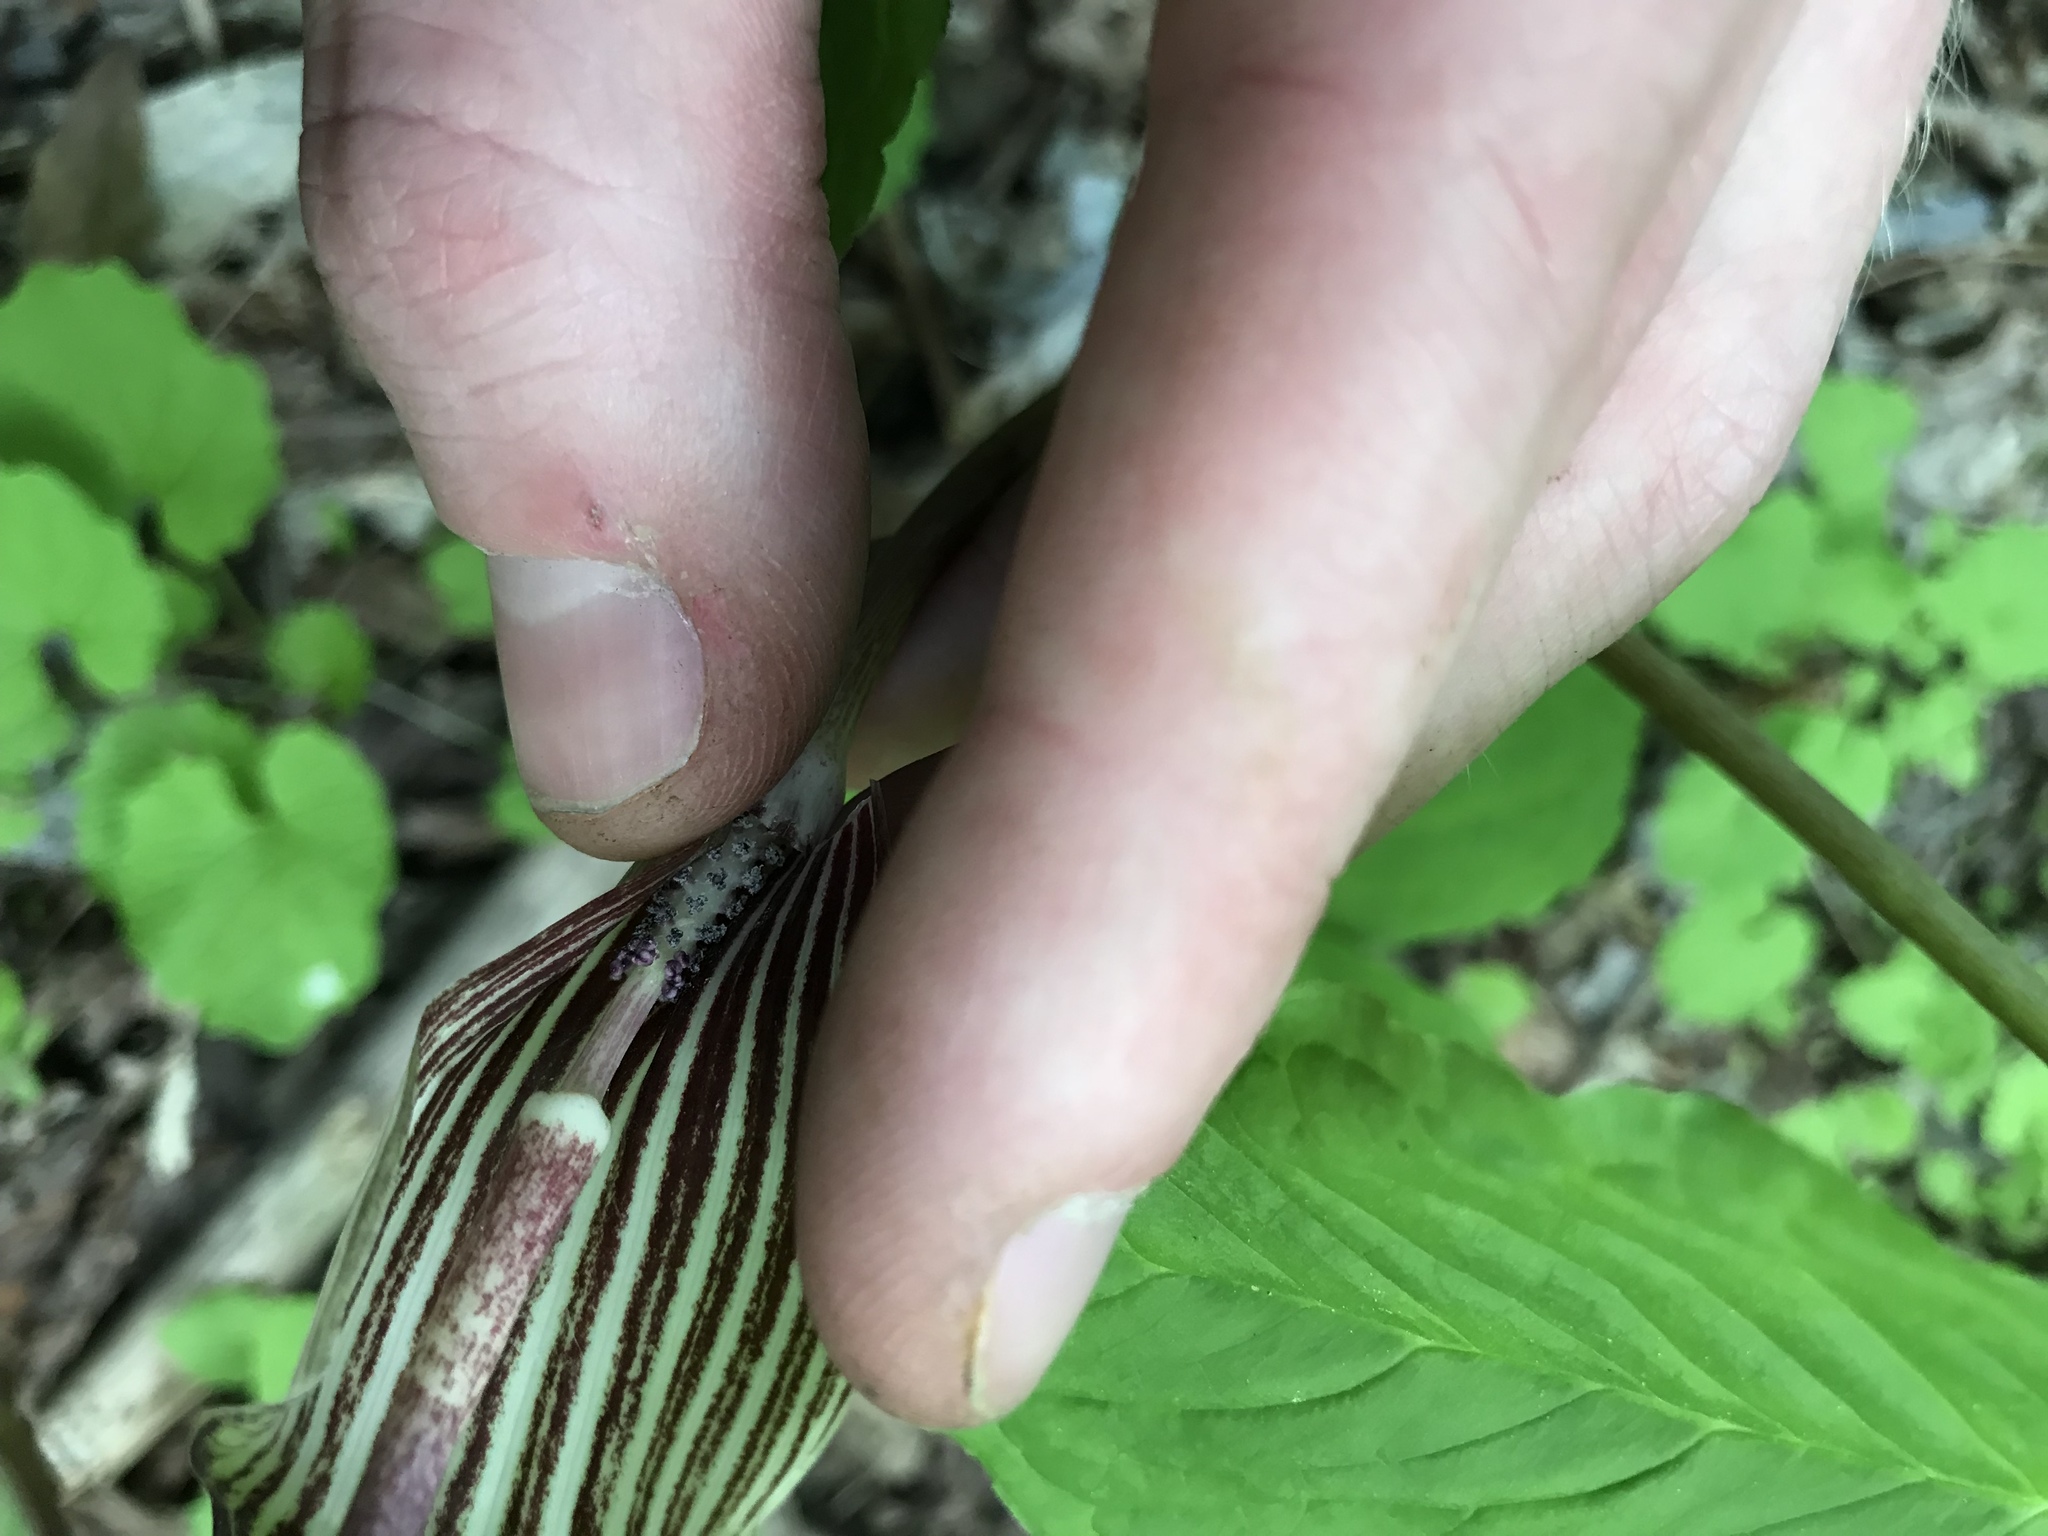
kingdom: Plantae
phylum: Tracheophyta
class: Liliopsida
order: Alismatales
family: Araceae
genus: Arisaema
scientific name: Arisaema triphyllum
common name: Jack-in-the-pulpit
